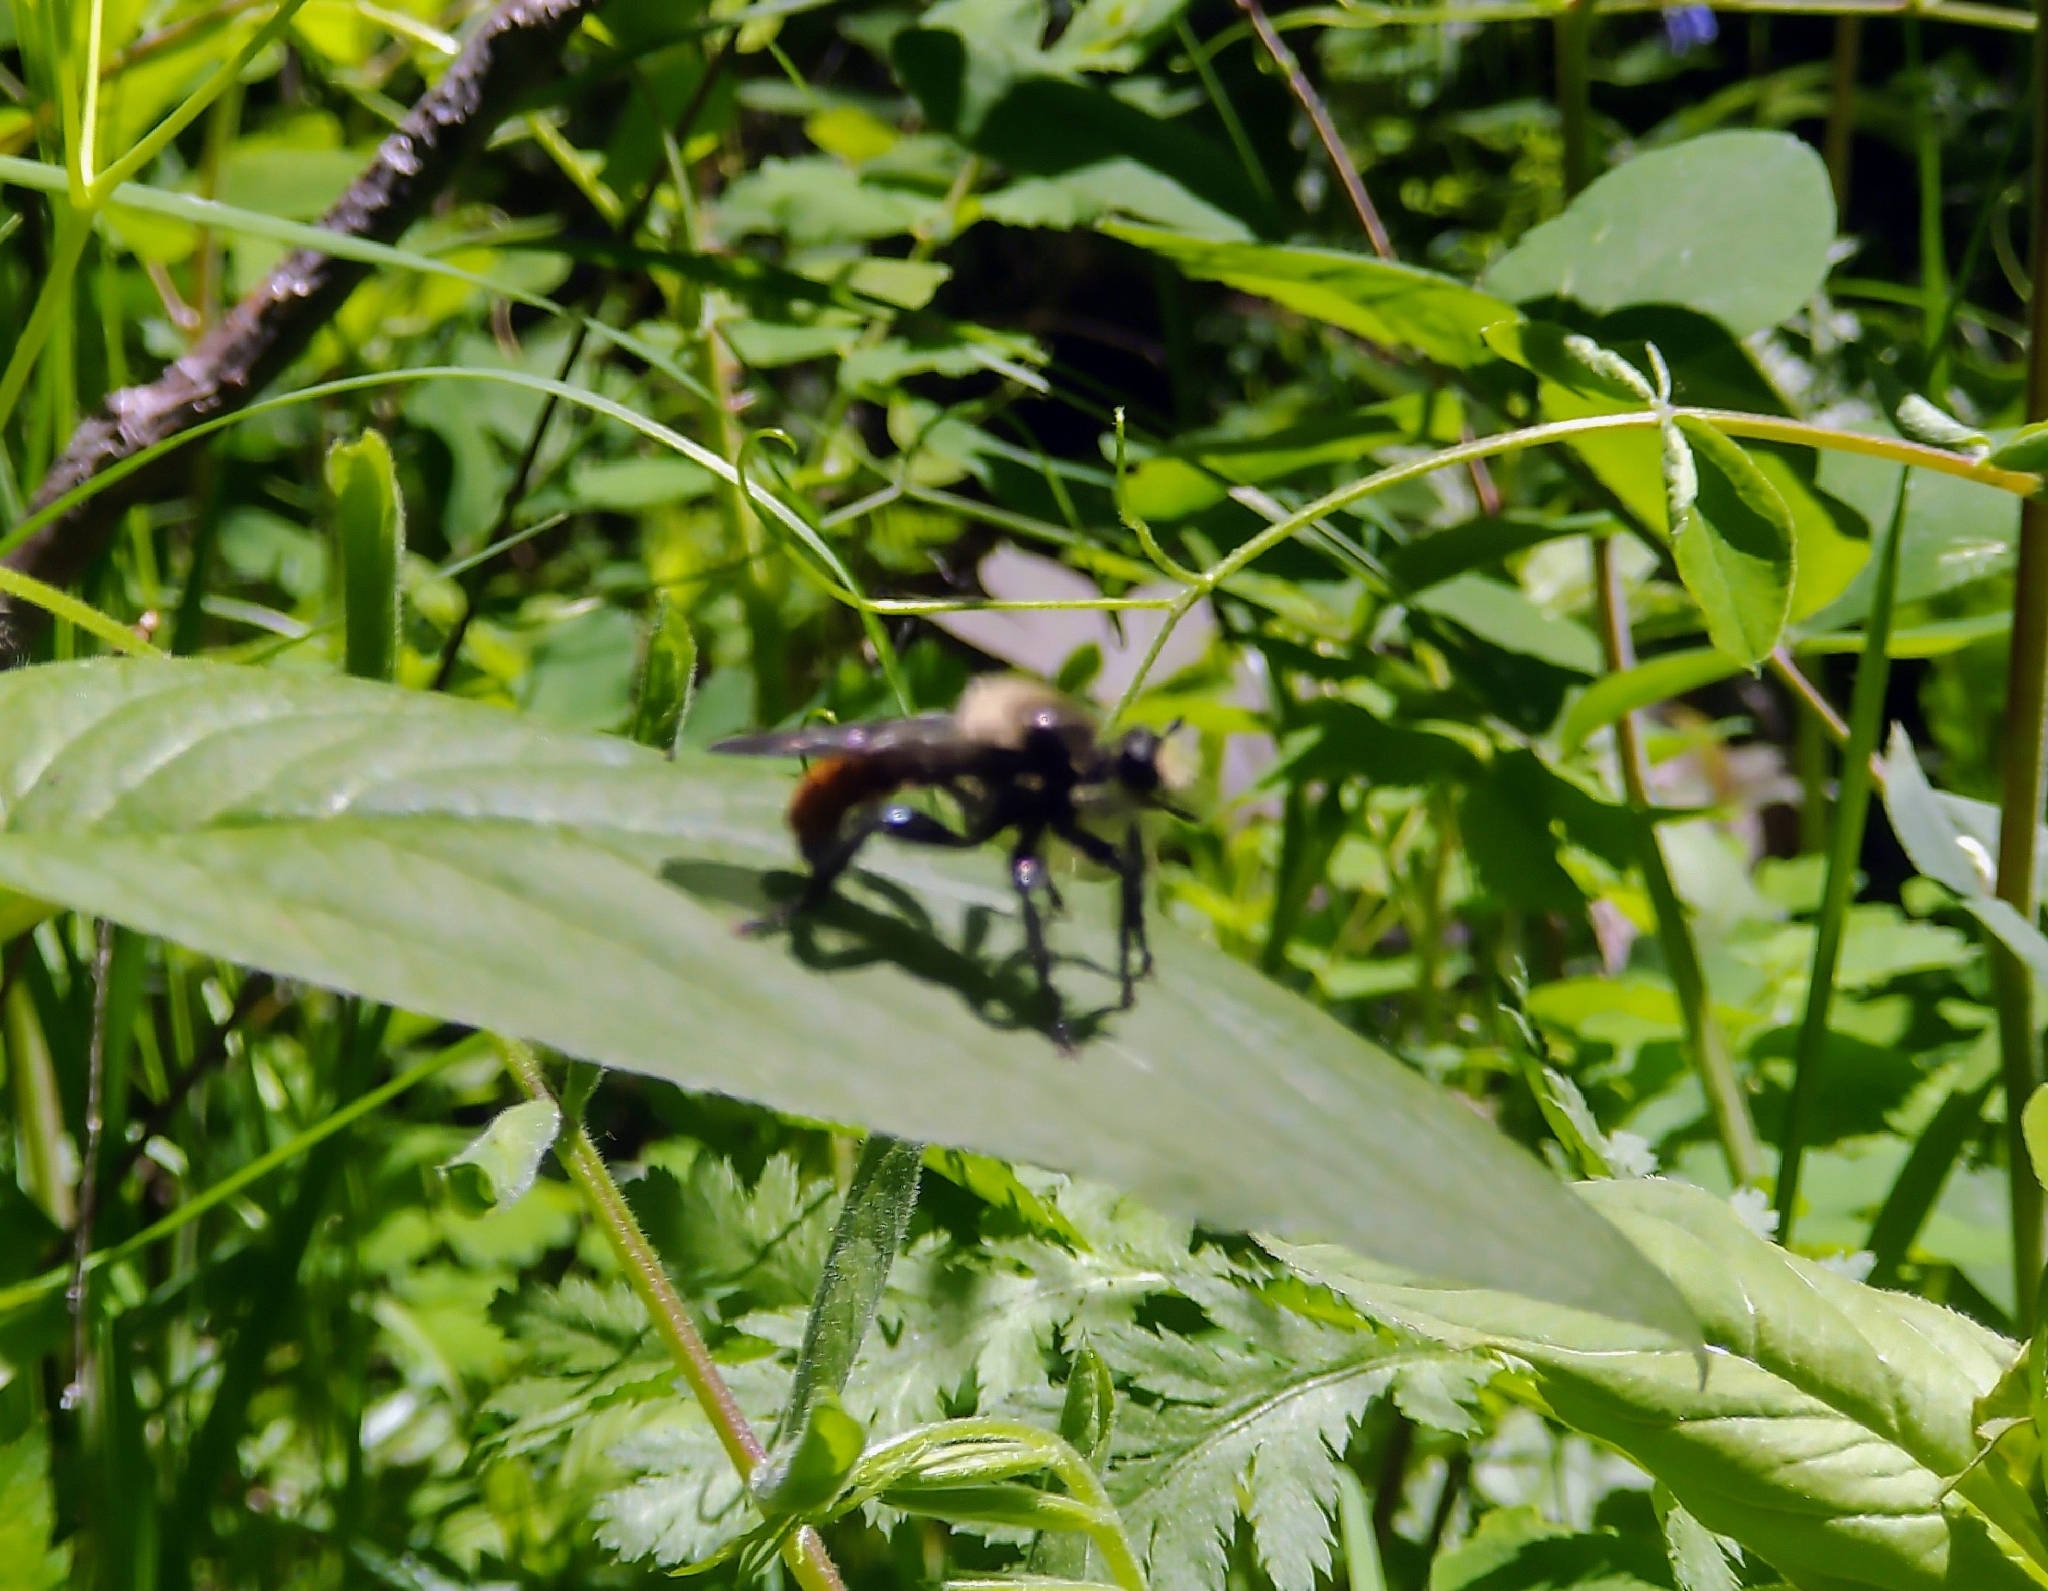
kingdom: Animalia
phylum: Arthropoda
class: Insecta
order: Diptera
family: Asilidae
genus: Laphria
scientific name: Laphria janus
